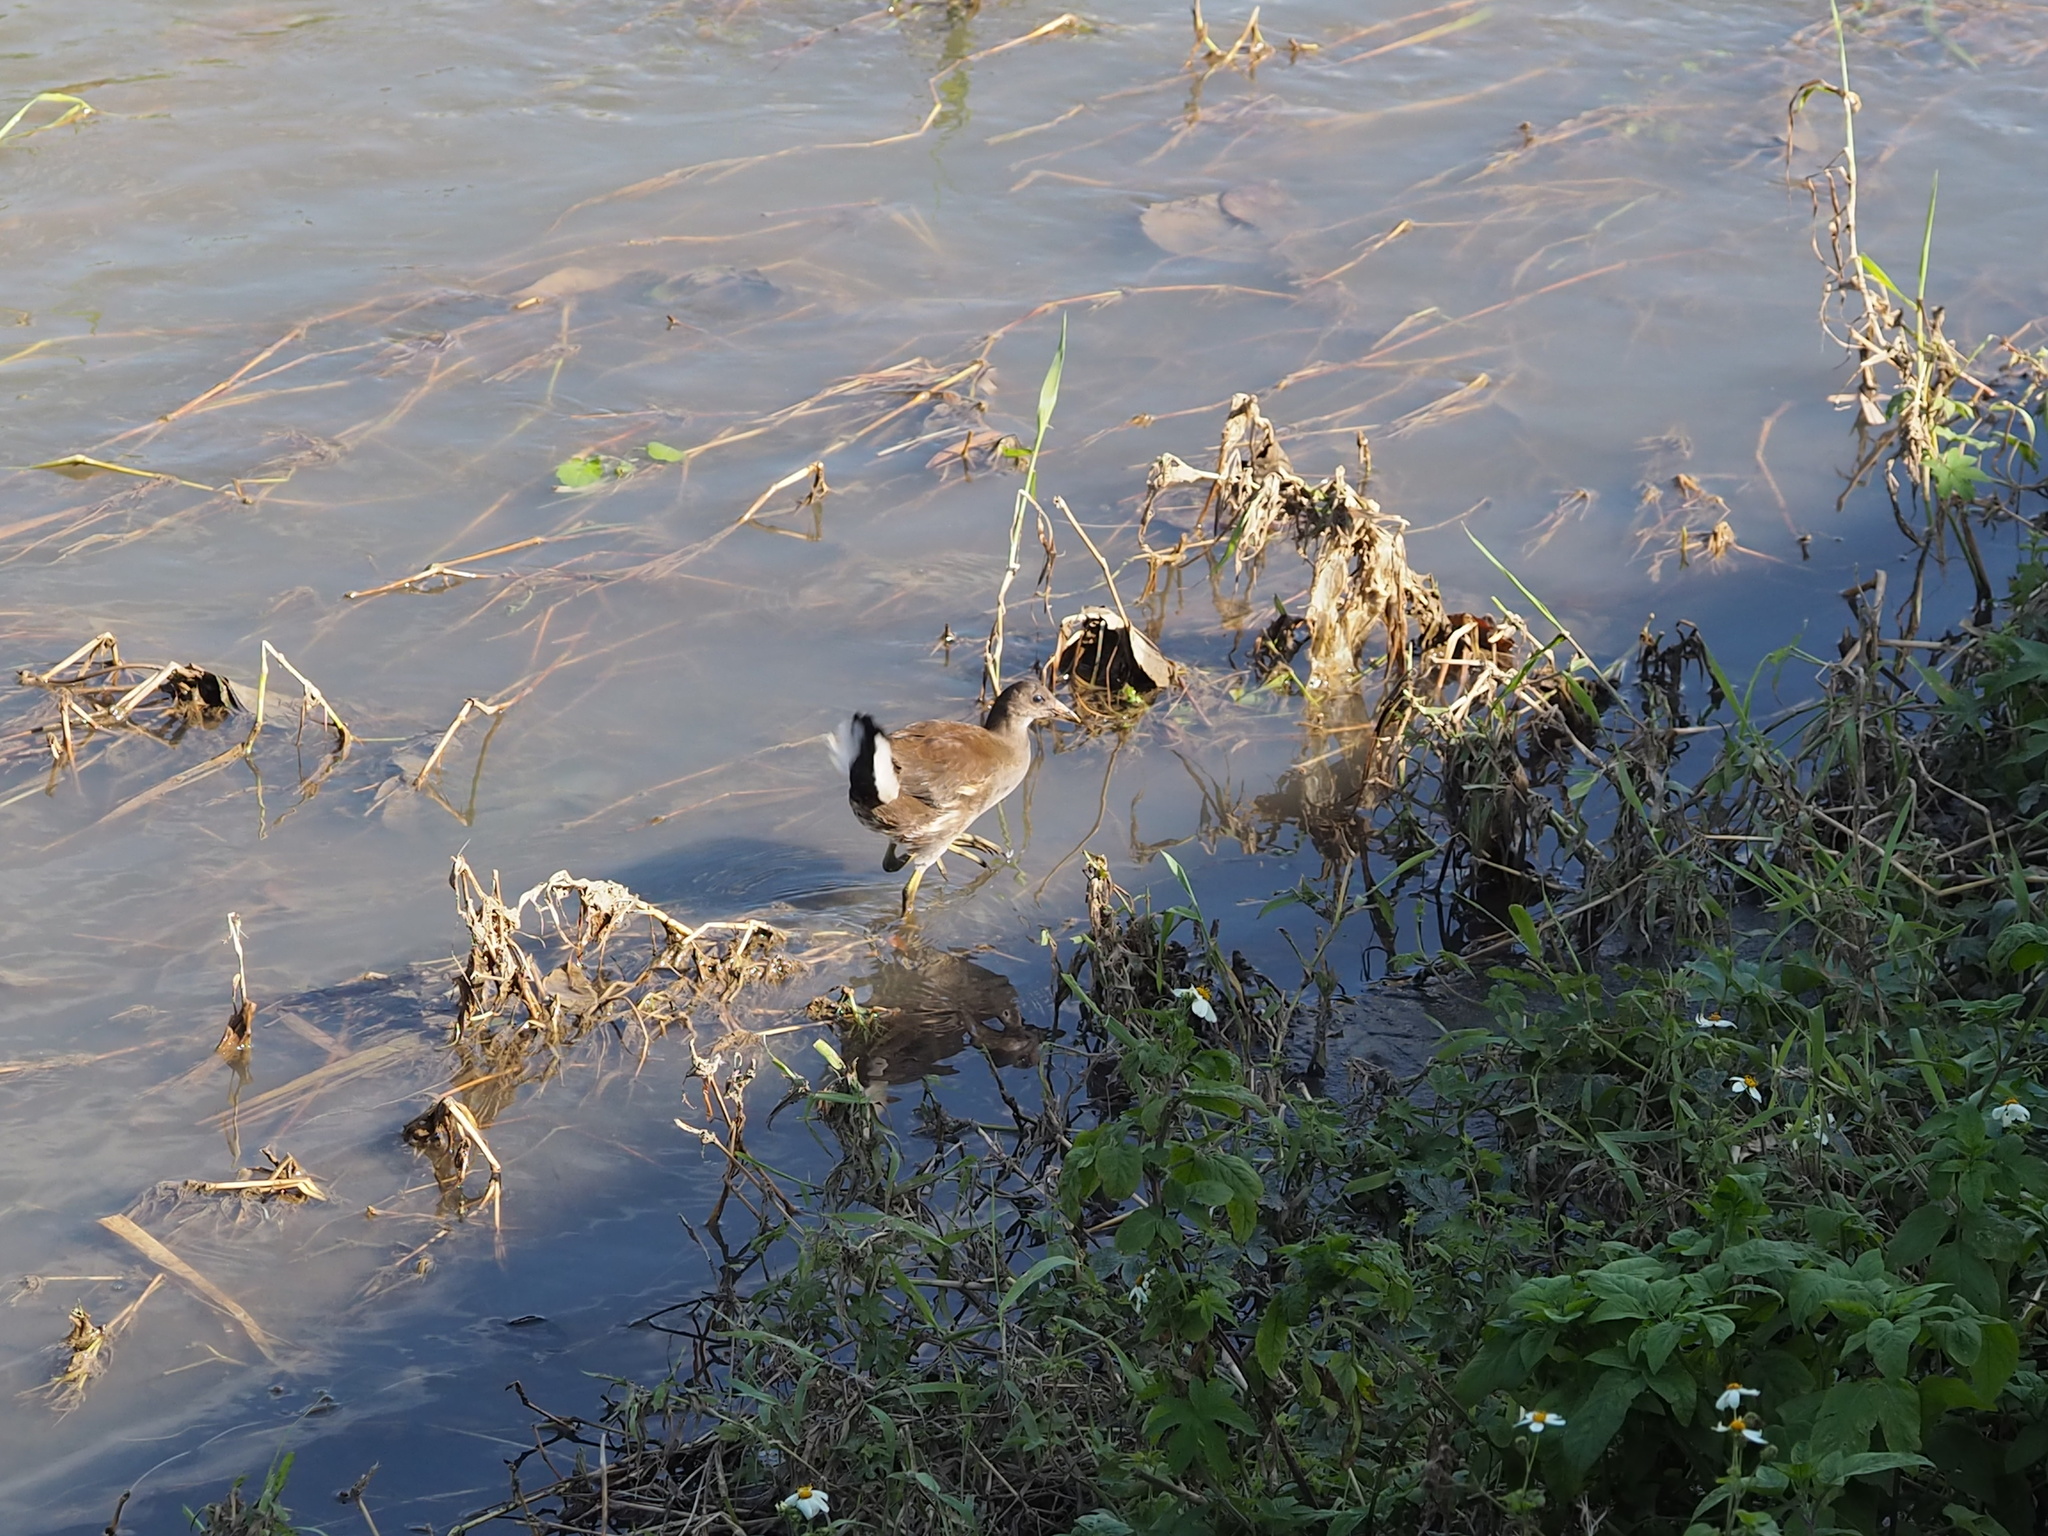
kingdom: Animalia
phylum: Chordata
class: Aves
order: Gruiformes
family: Rallidae
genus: Gallinula
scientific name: Gallinula chloropus
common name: Common moorhen
